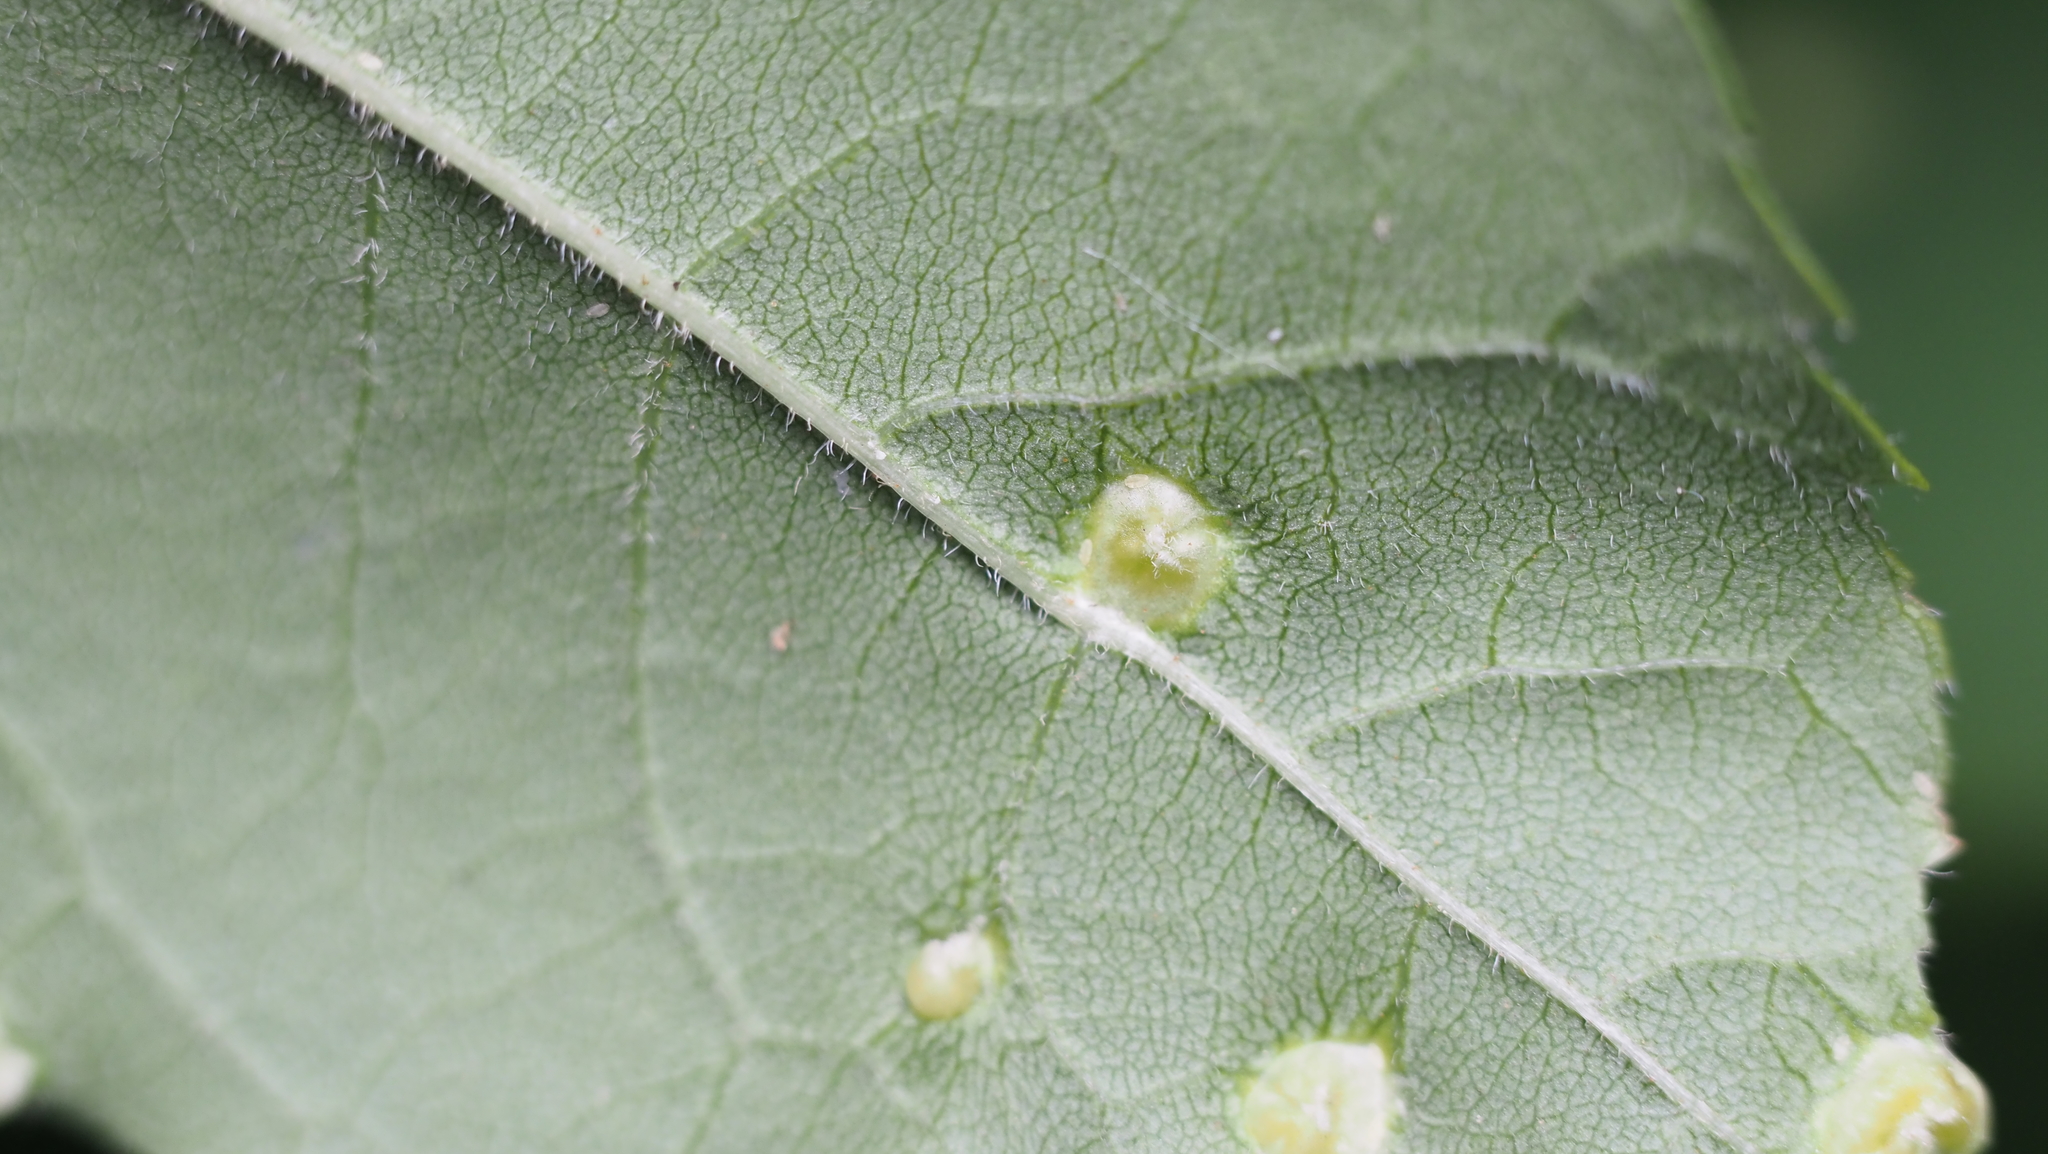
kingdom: Animalia
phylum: Arthropoda
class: Arachnida
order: Trombidiformes
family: Eriophyidae
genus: Aceria
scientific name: Aceria fraxinicola
